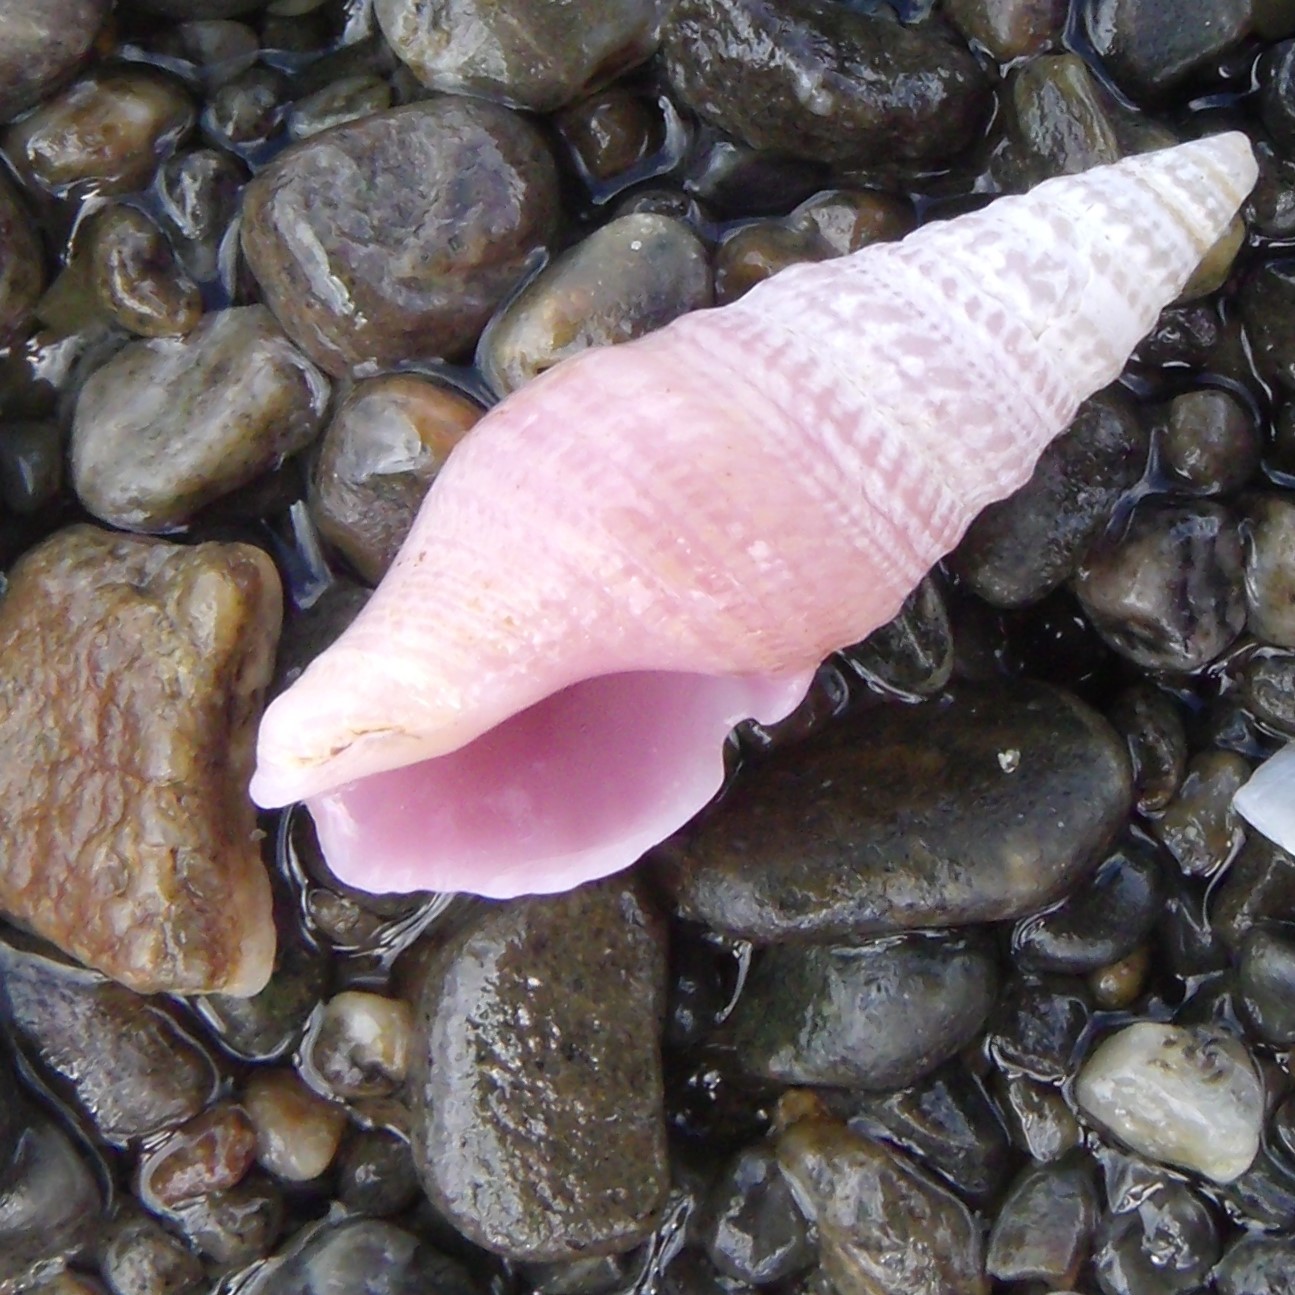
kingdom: Animalia
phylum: Mollusca
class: Gastropoda
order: Neogastropoda
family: Borsoniidae
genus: Phenatoma
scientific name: Phenatoma roseum
